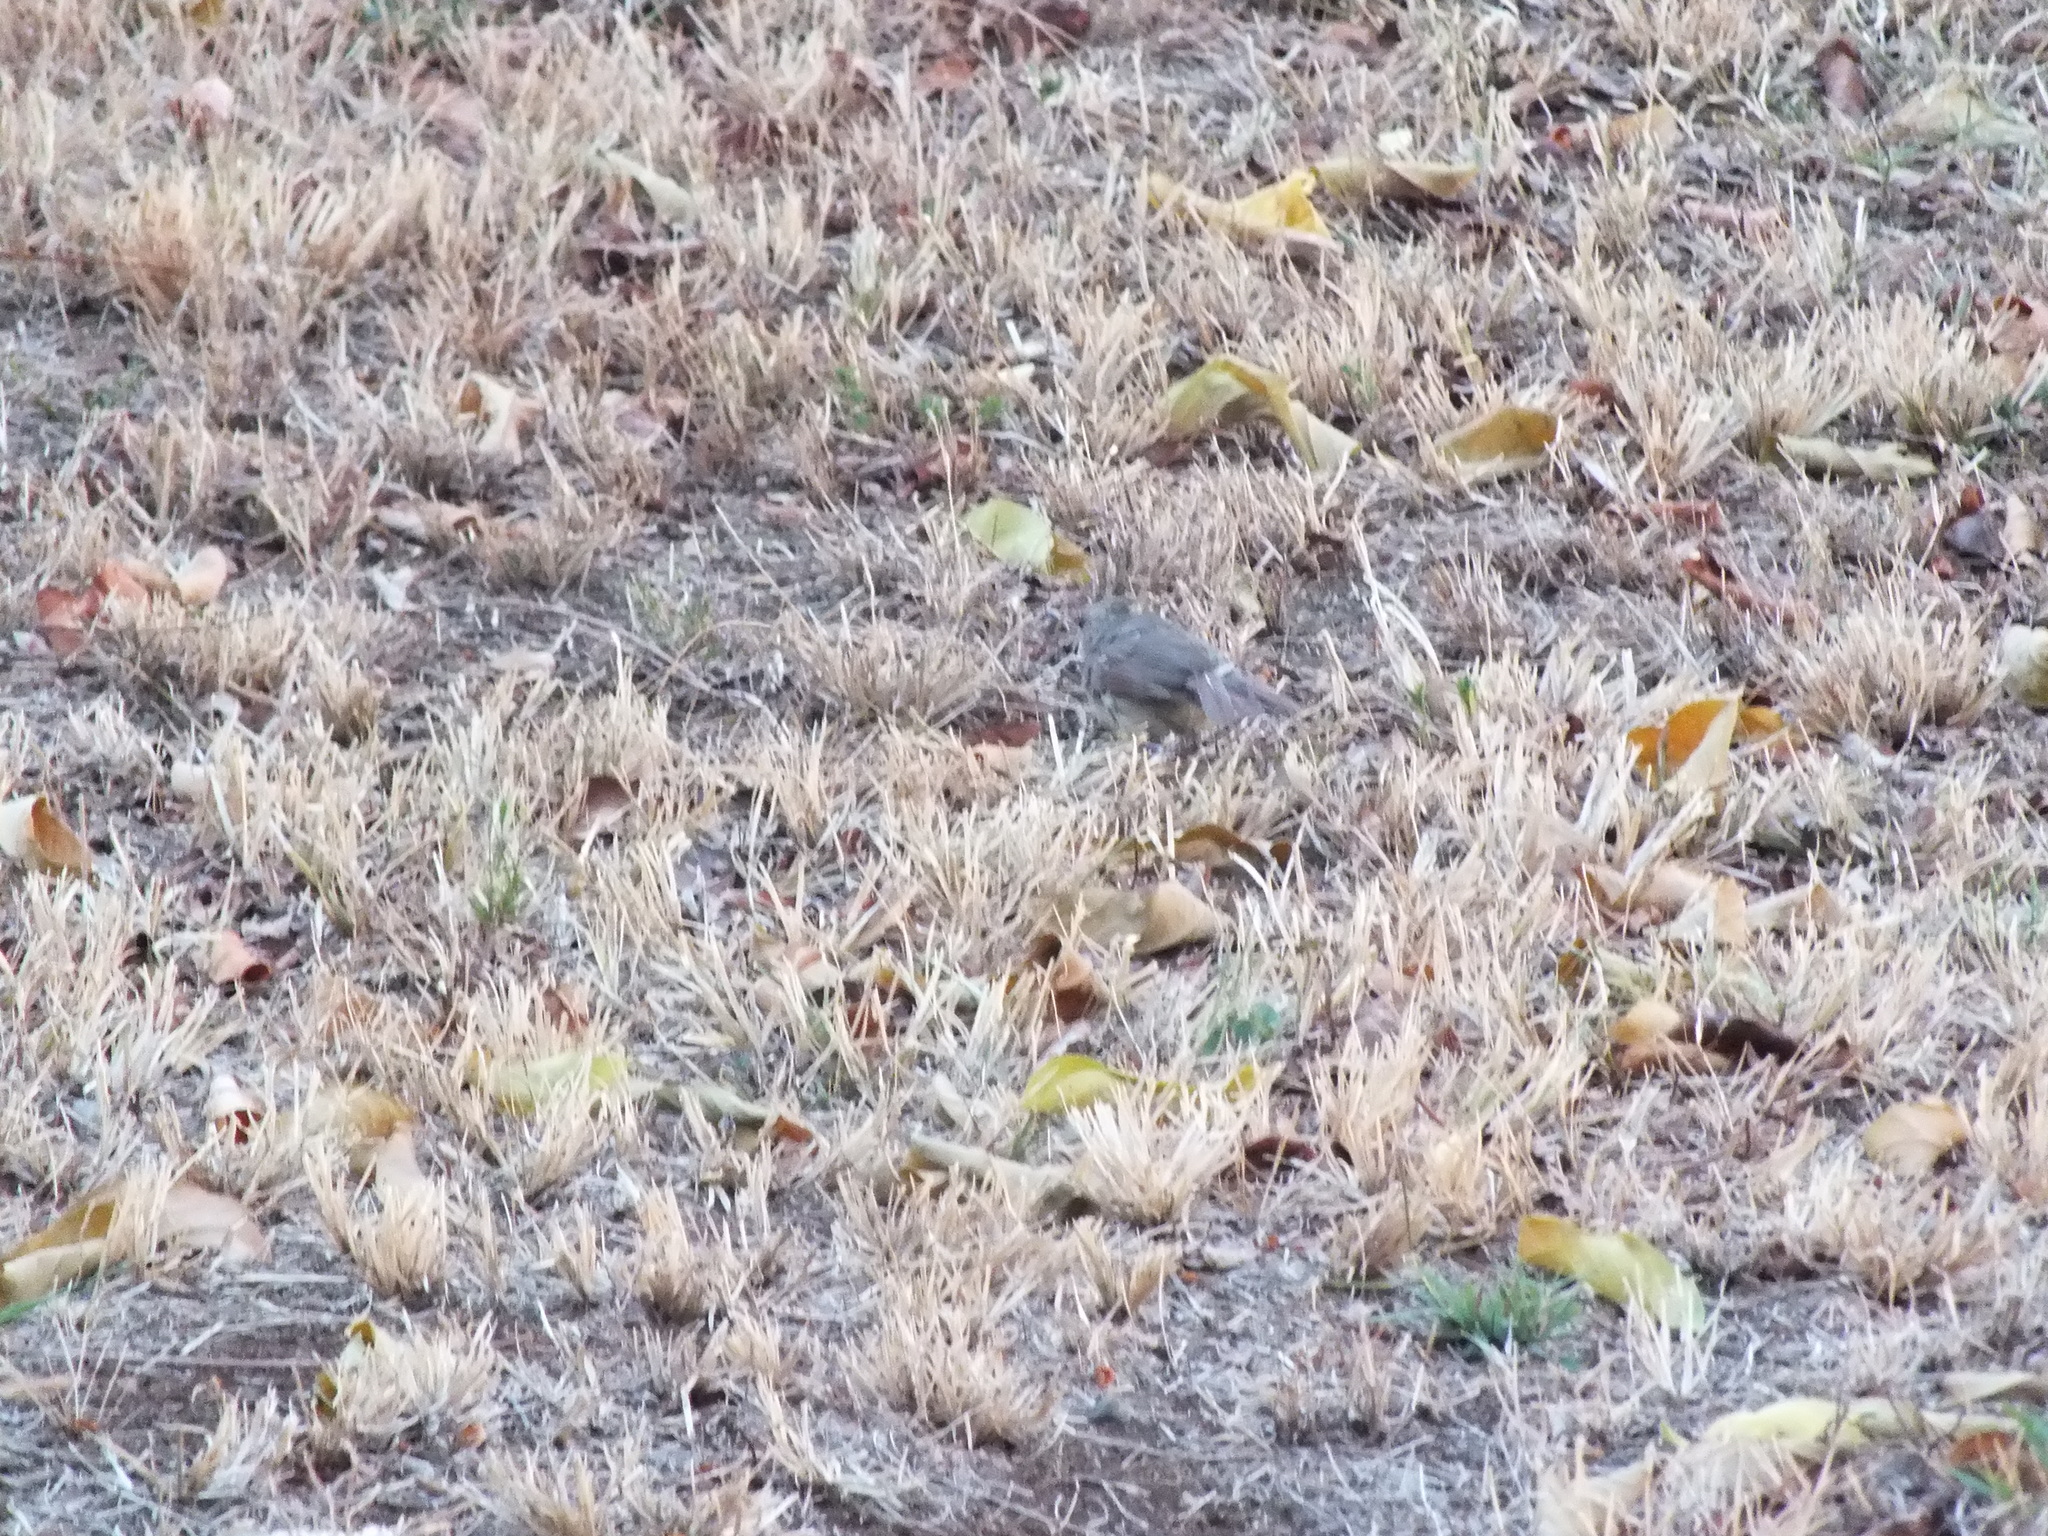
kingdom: Animalia
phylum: Chordata
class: Aves
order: Passeriformes
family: Cardinalidae
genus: Cardinalis
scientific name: Cardinalis cardinalis
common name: Northern cardinal
